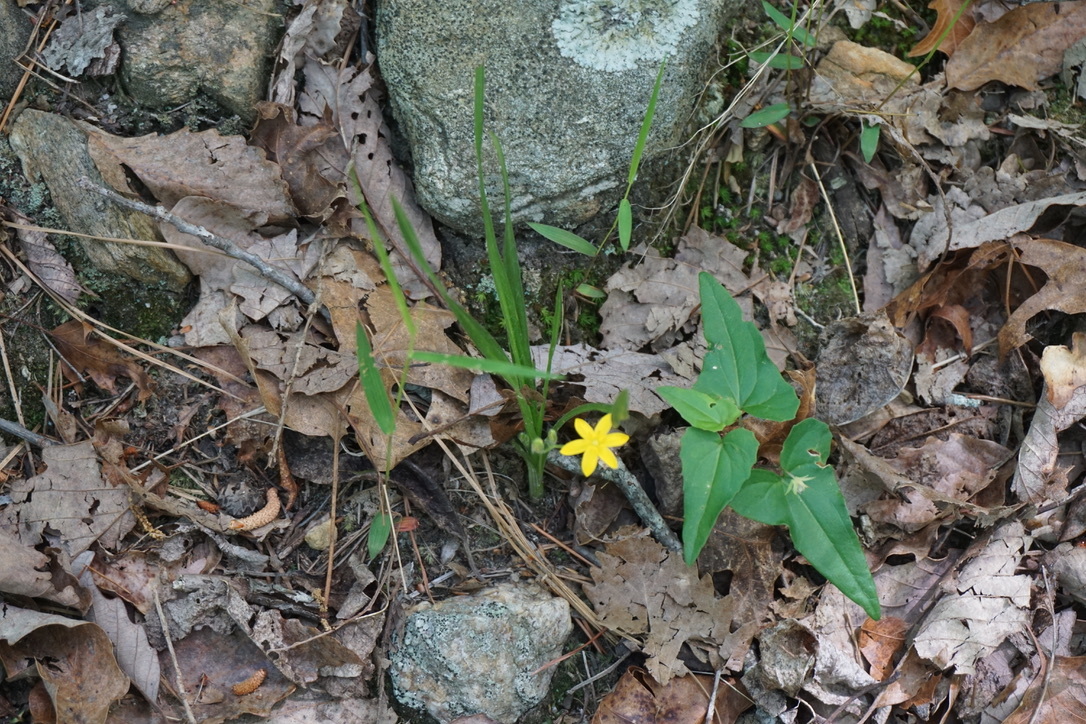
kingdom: Plantae
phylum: Tracheophyta
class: Liliopsida
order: Asparagales
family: Hypoxidaceae
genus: Hypoxis
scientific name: Hypoxis hirsuta
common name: Common goldstar
